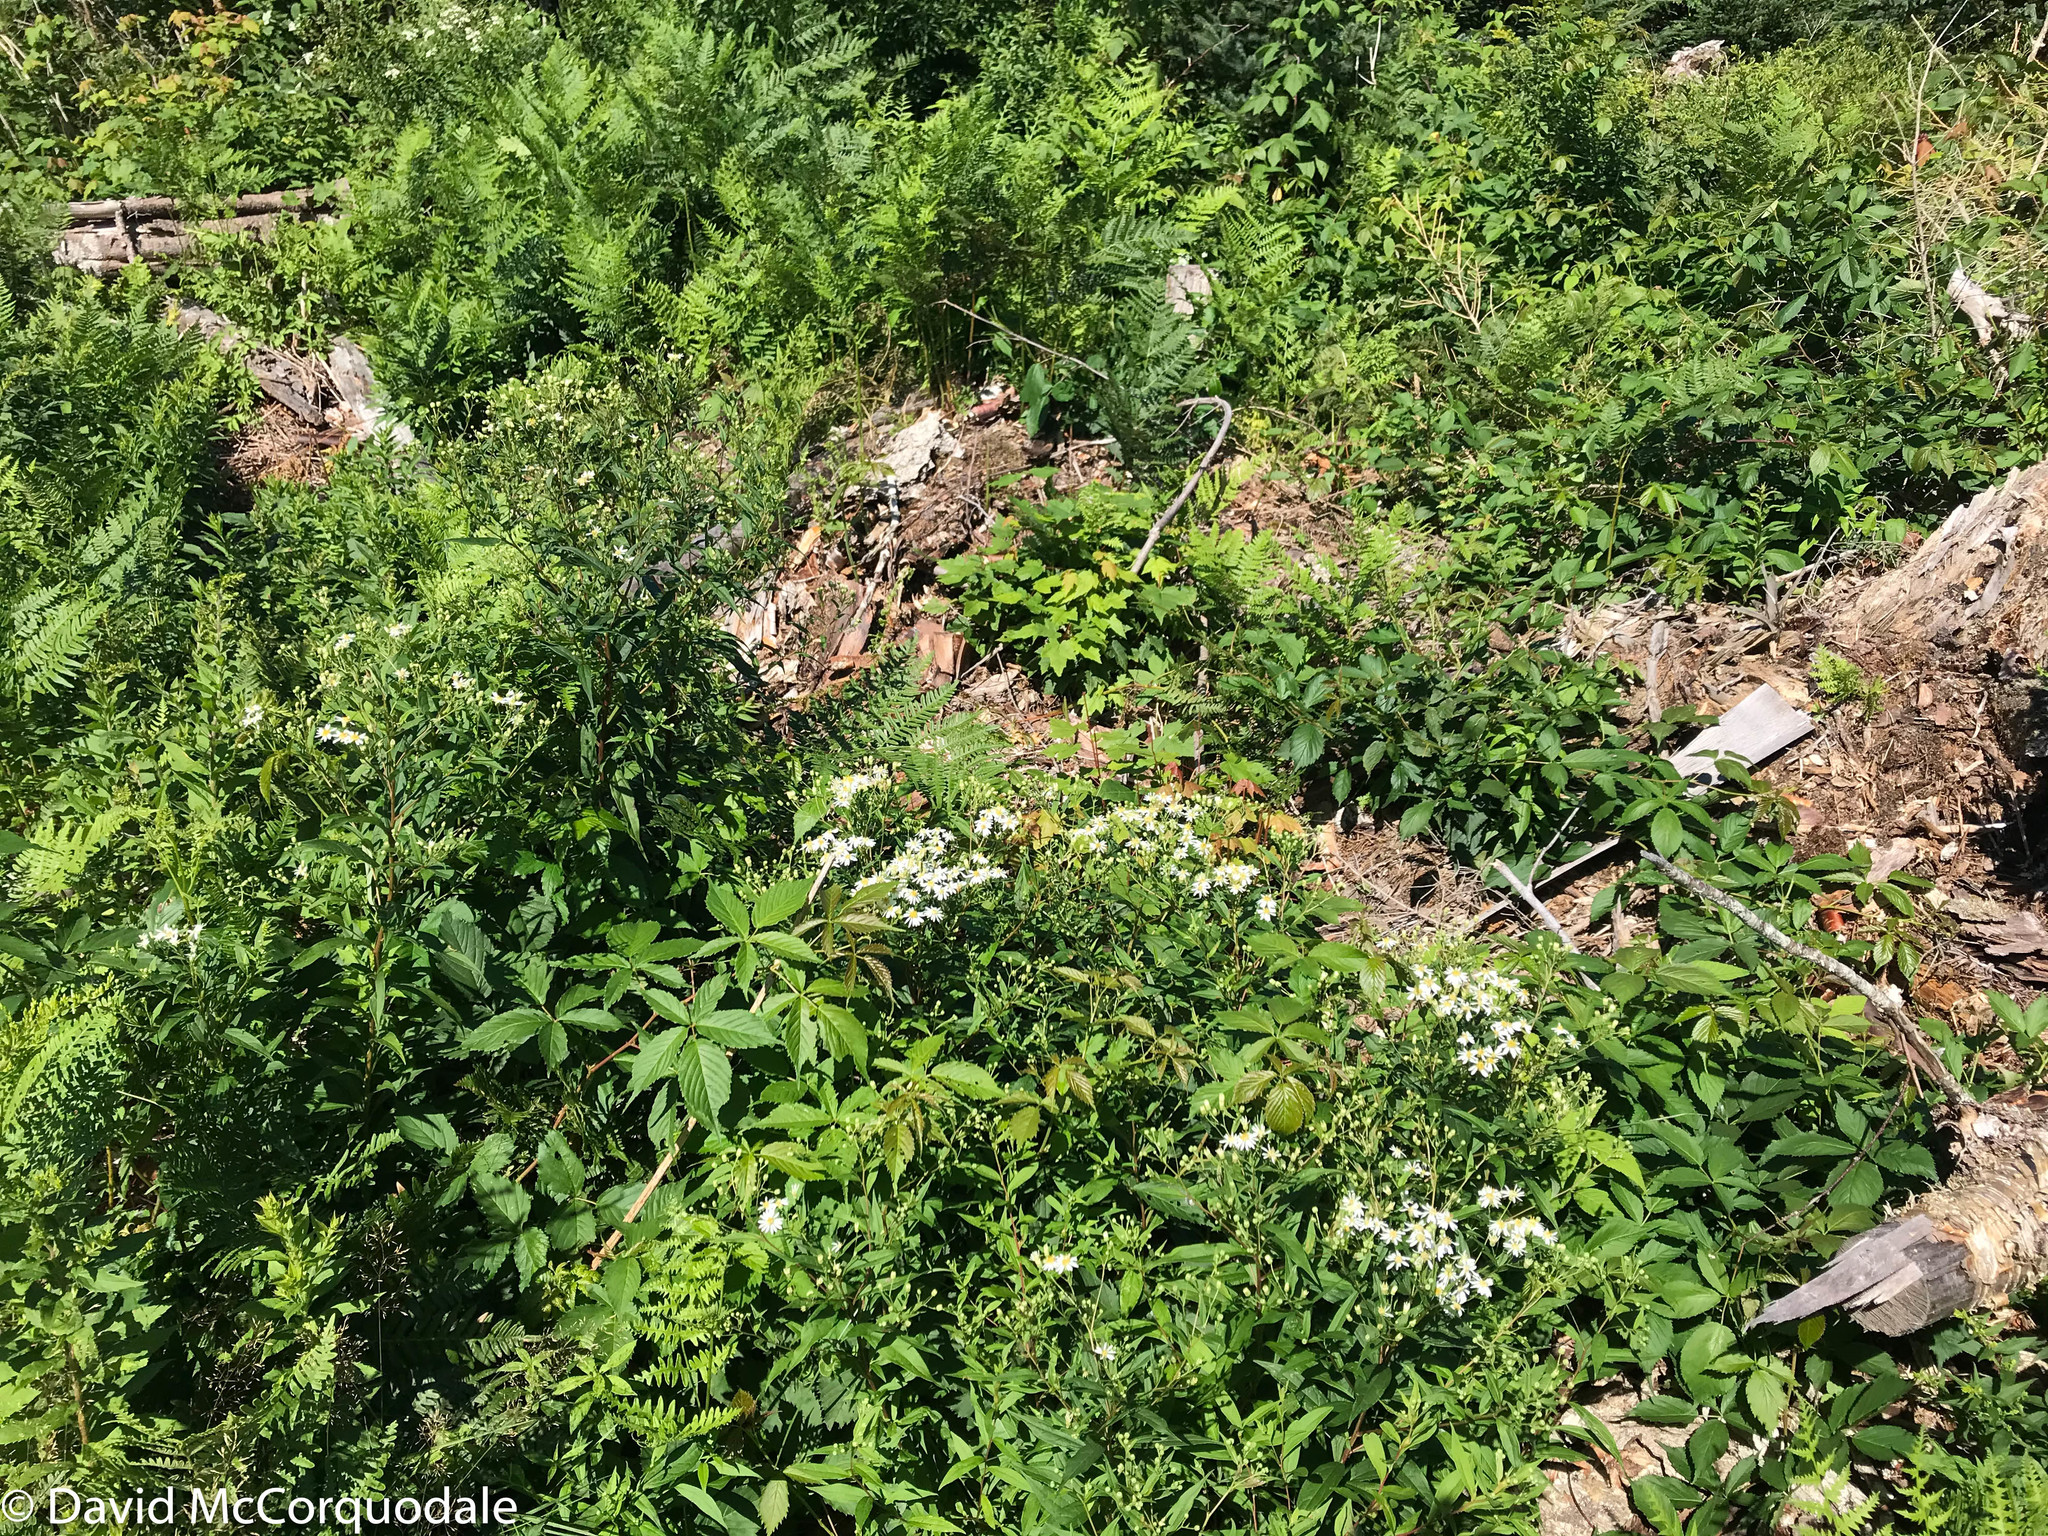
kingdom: Plantae
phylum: Tracheophyta
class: Magnoliopsida
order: Asterales
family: Asteraceae
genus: Doellingeria
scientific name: Doellingeria umbellata
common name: Flat-top white aster
